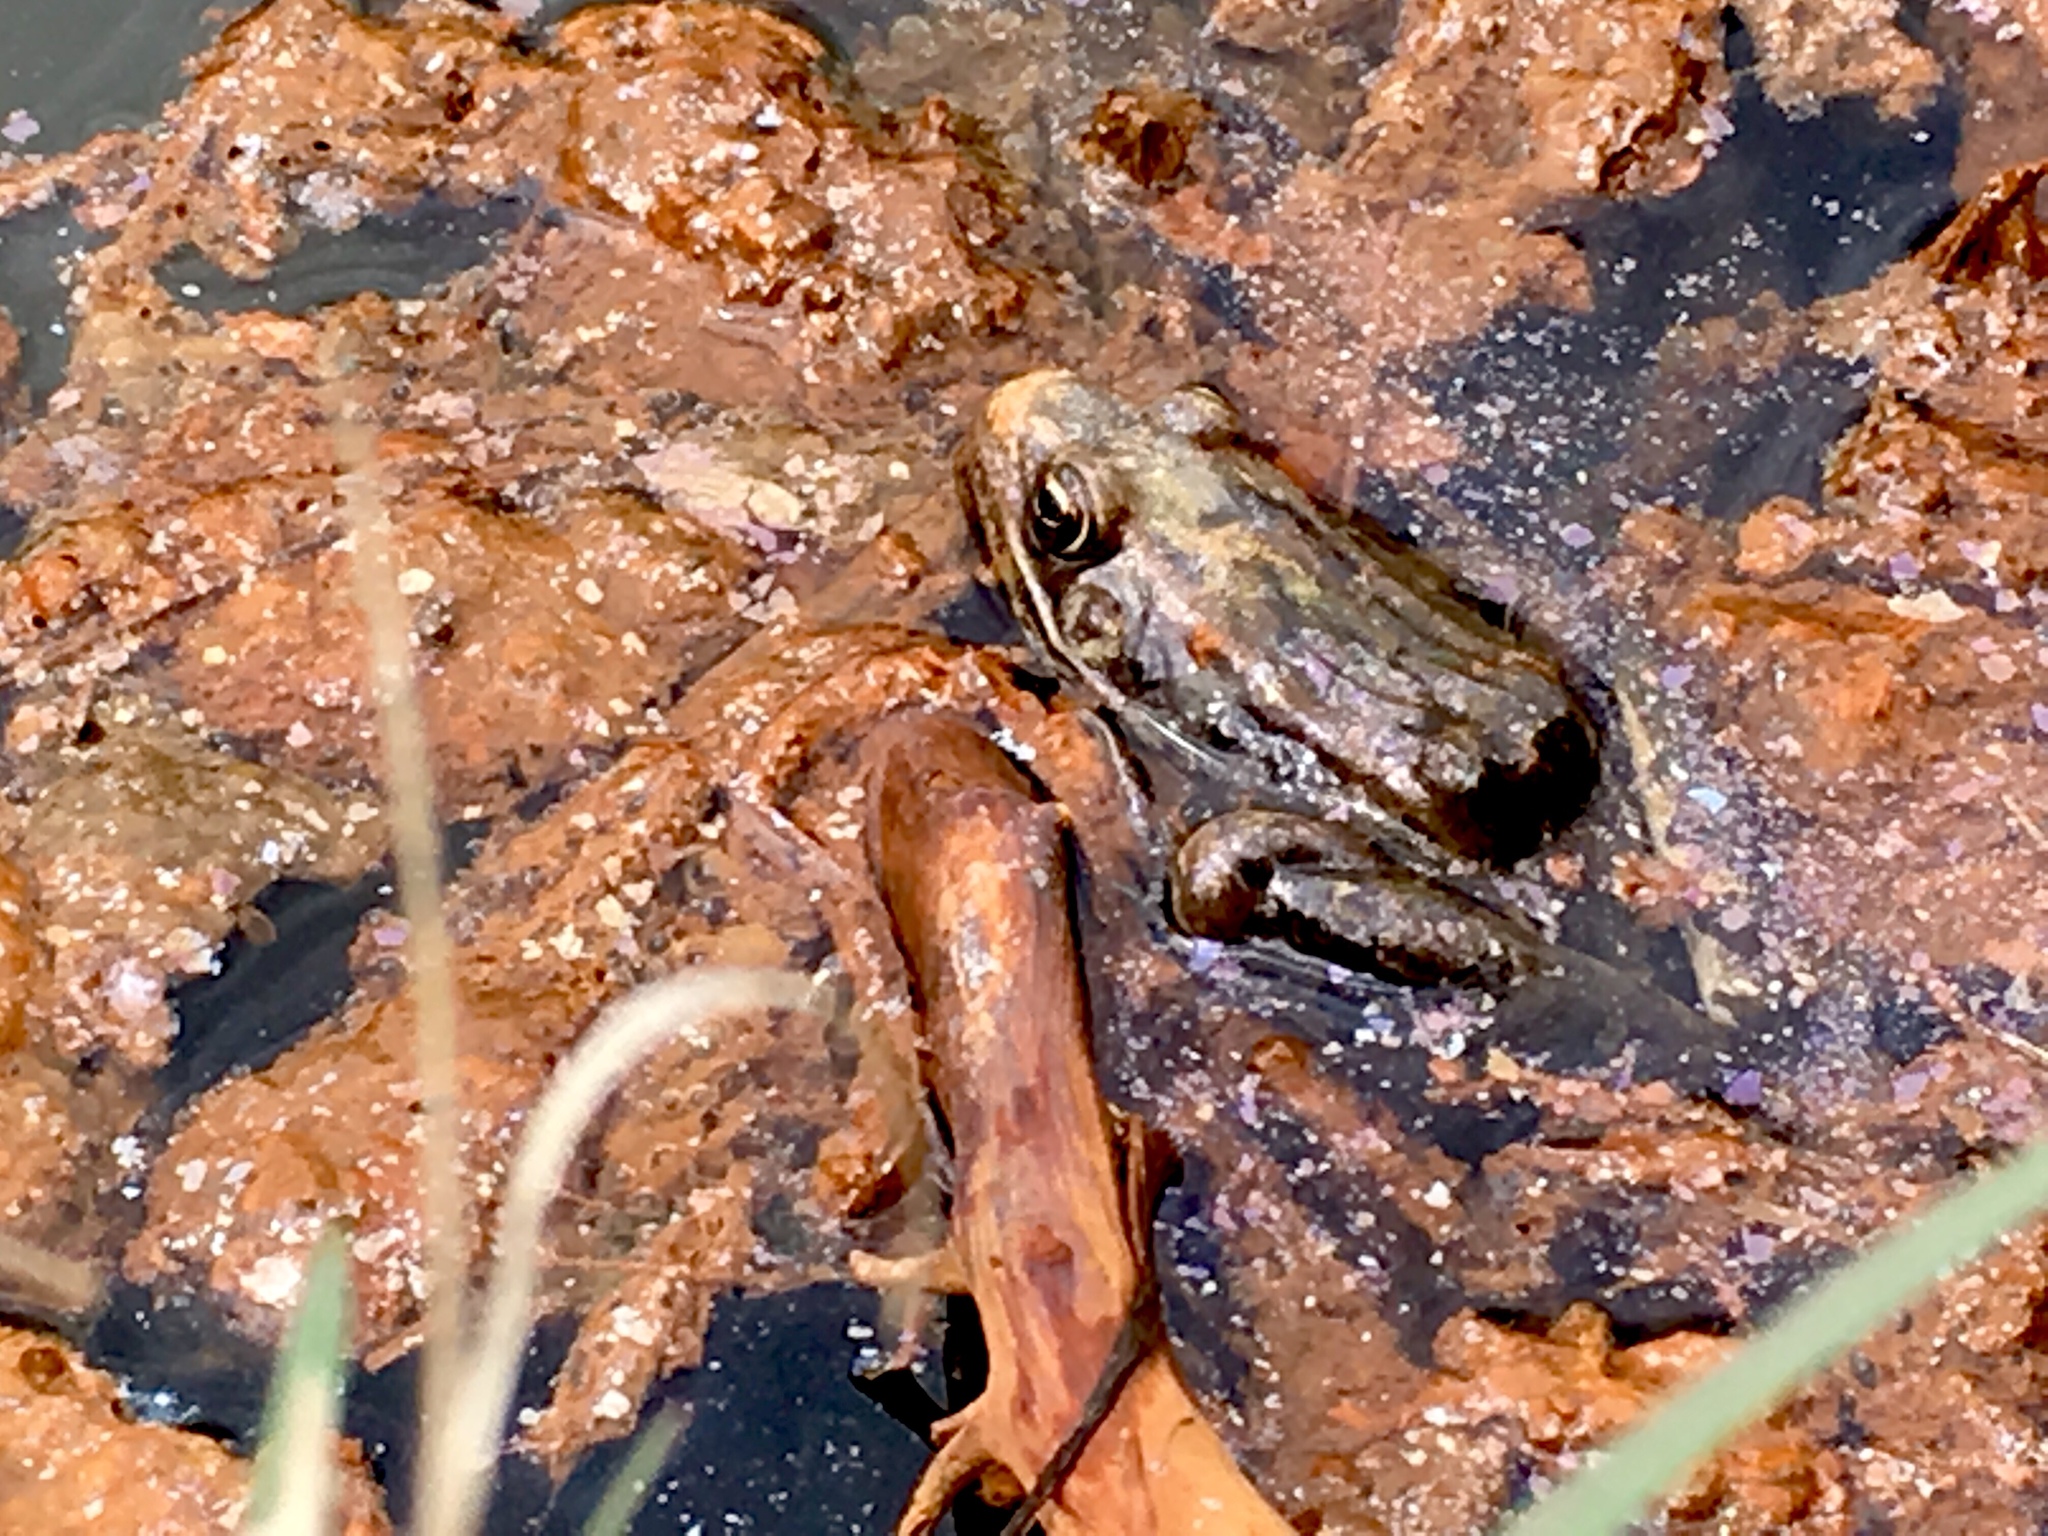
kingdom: Animalia
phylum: Chordata
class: Amphibia
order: Anura
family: Ranidae
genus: Lithobates
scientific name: Lithobates pipiens
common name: Northern leopard frog
